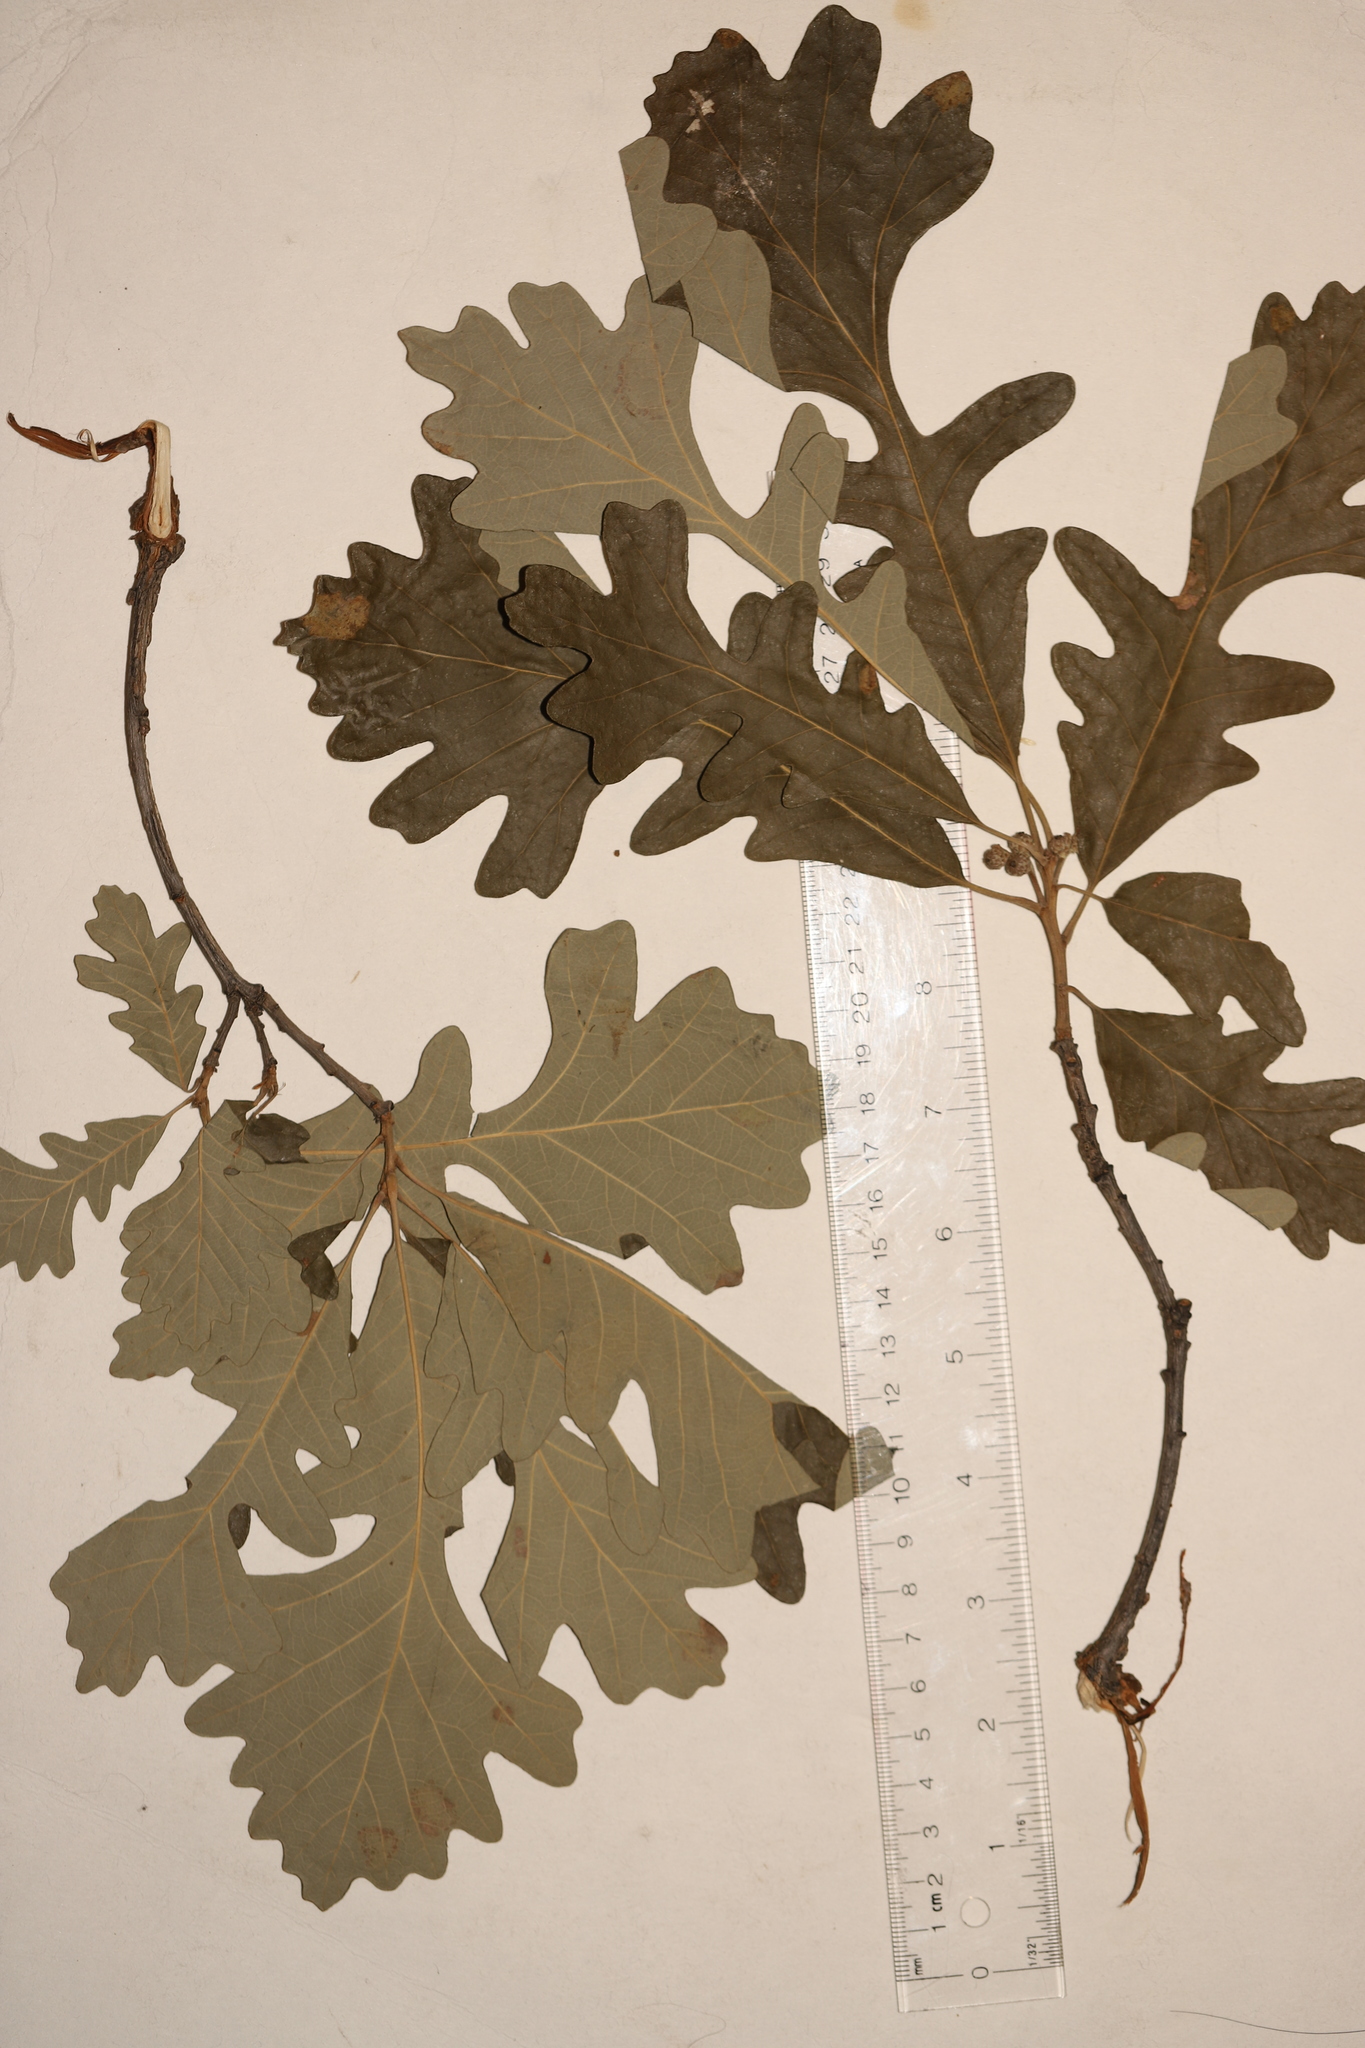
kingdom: Plantae
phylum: Tracheophyta
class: Magnoliopsida
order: Fagales
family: Fagaceae
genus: Quercus
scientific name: Quercus macrocarpa
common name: Bur oak
